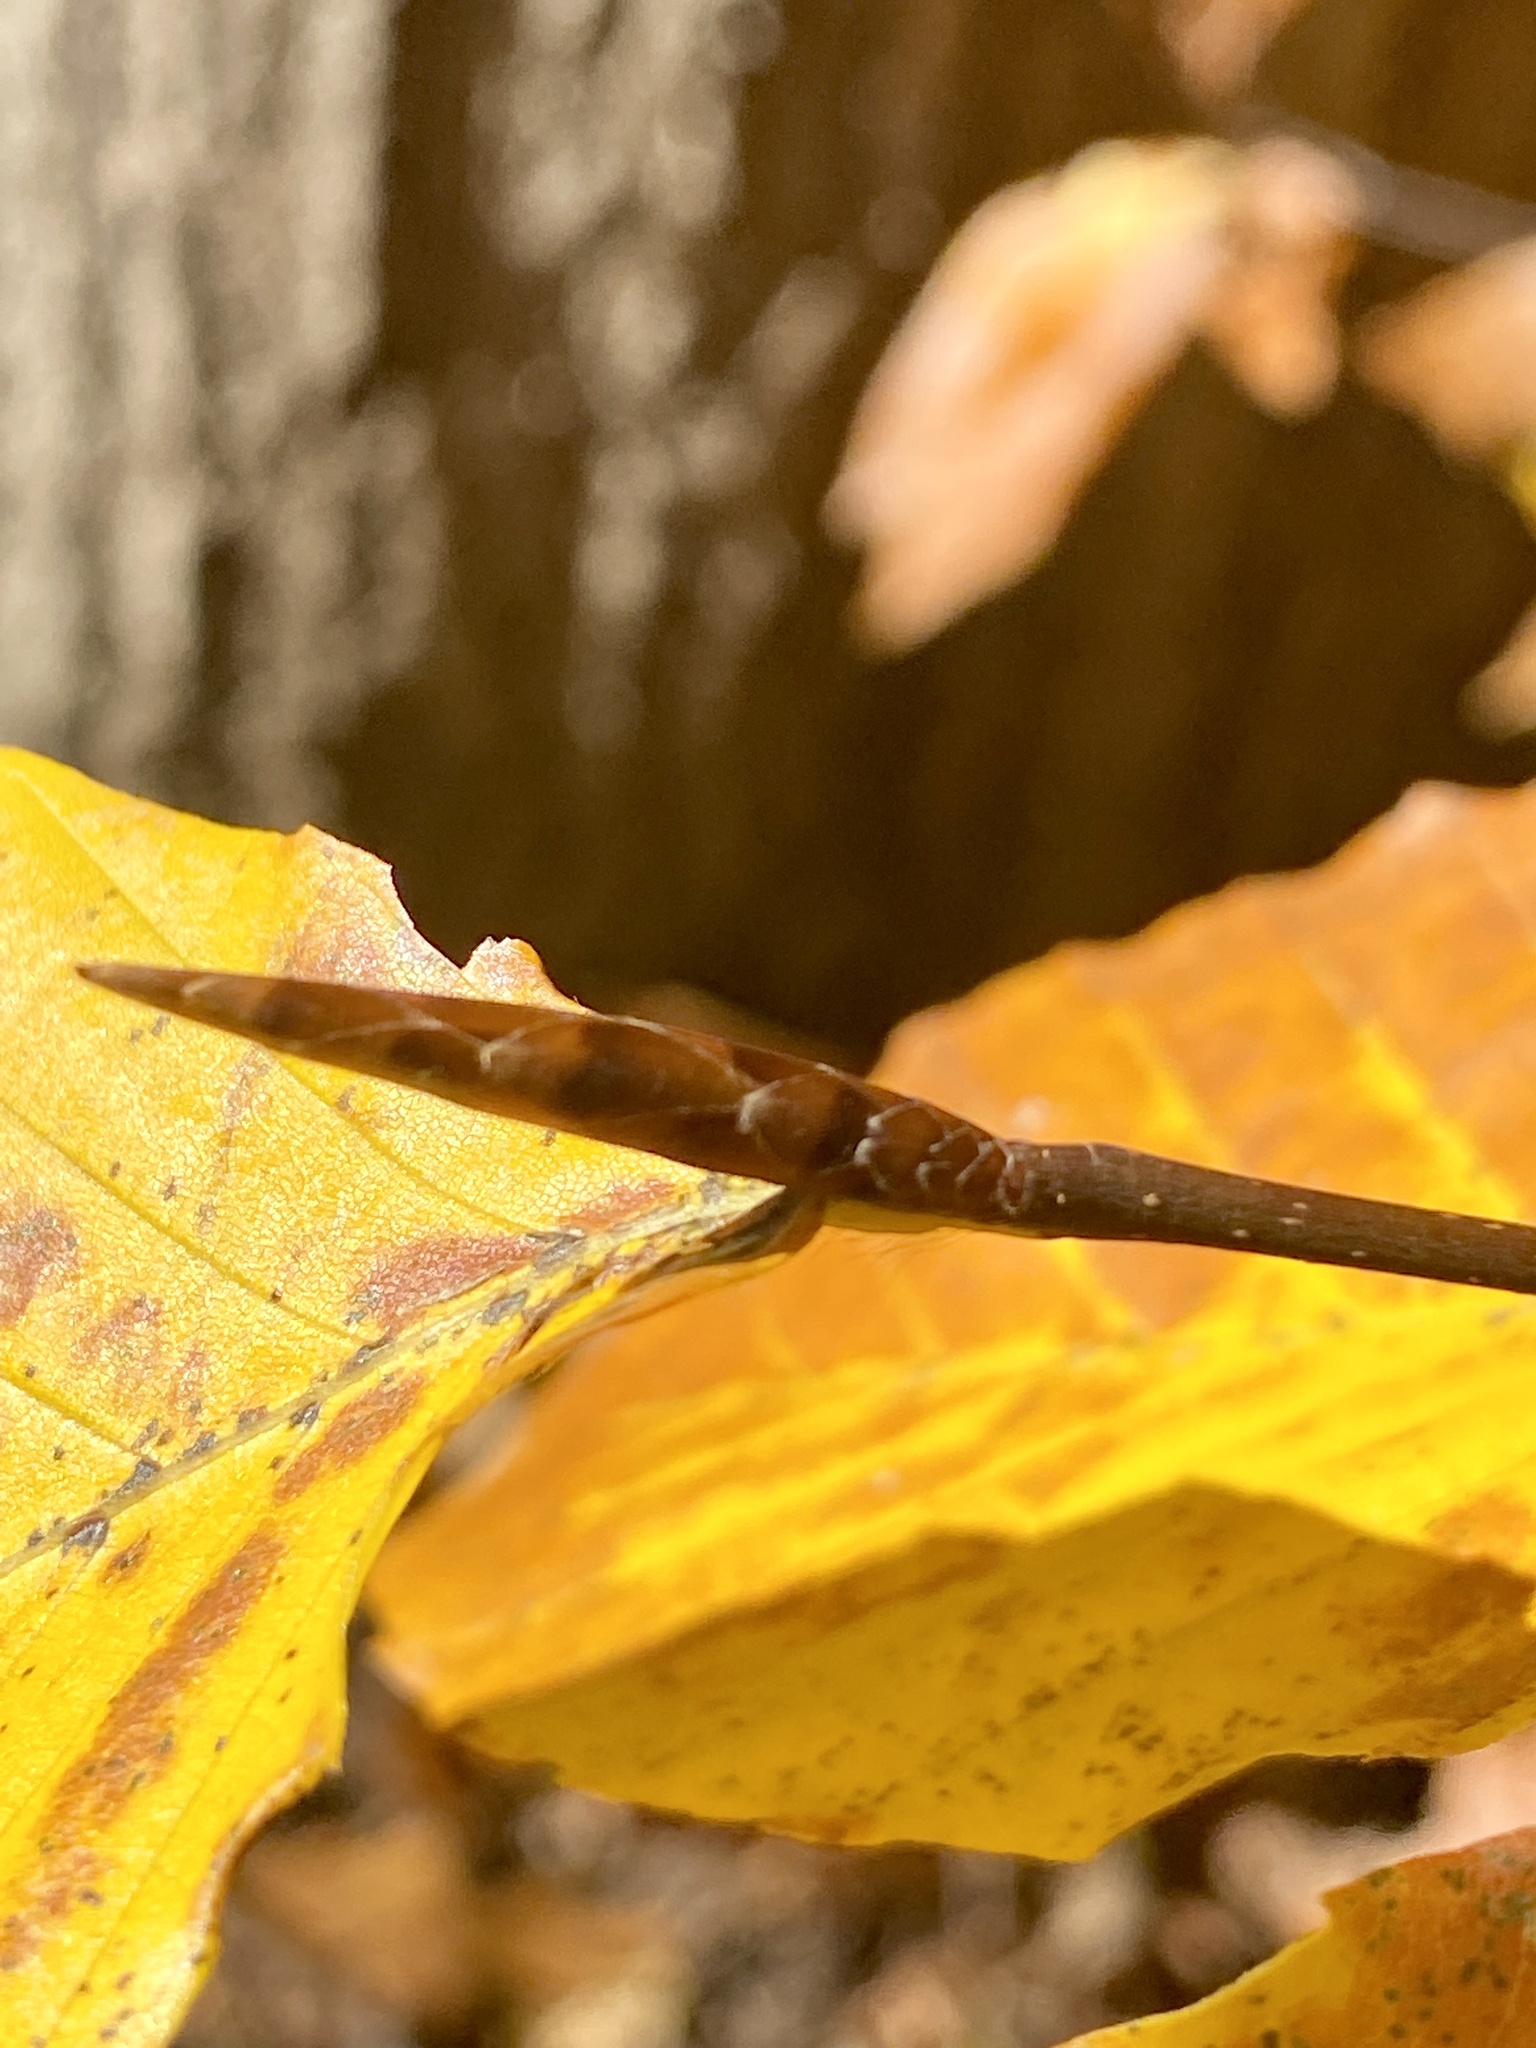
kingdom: Plantae
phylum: Tracheophyta
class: Magnoliopsida
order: Fagales
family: Fagaceae
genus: Fagus
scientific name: Fagus grandifolia
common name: American beech
